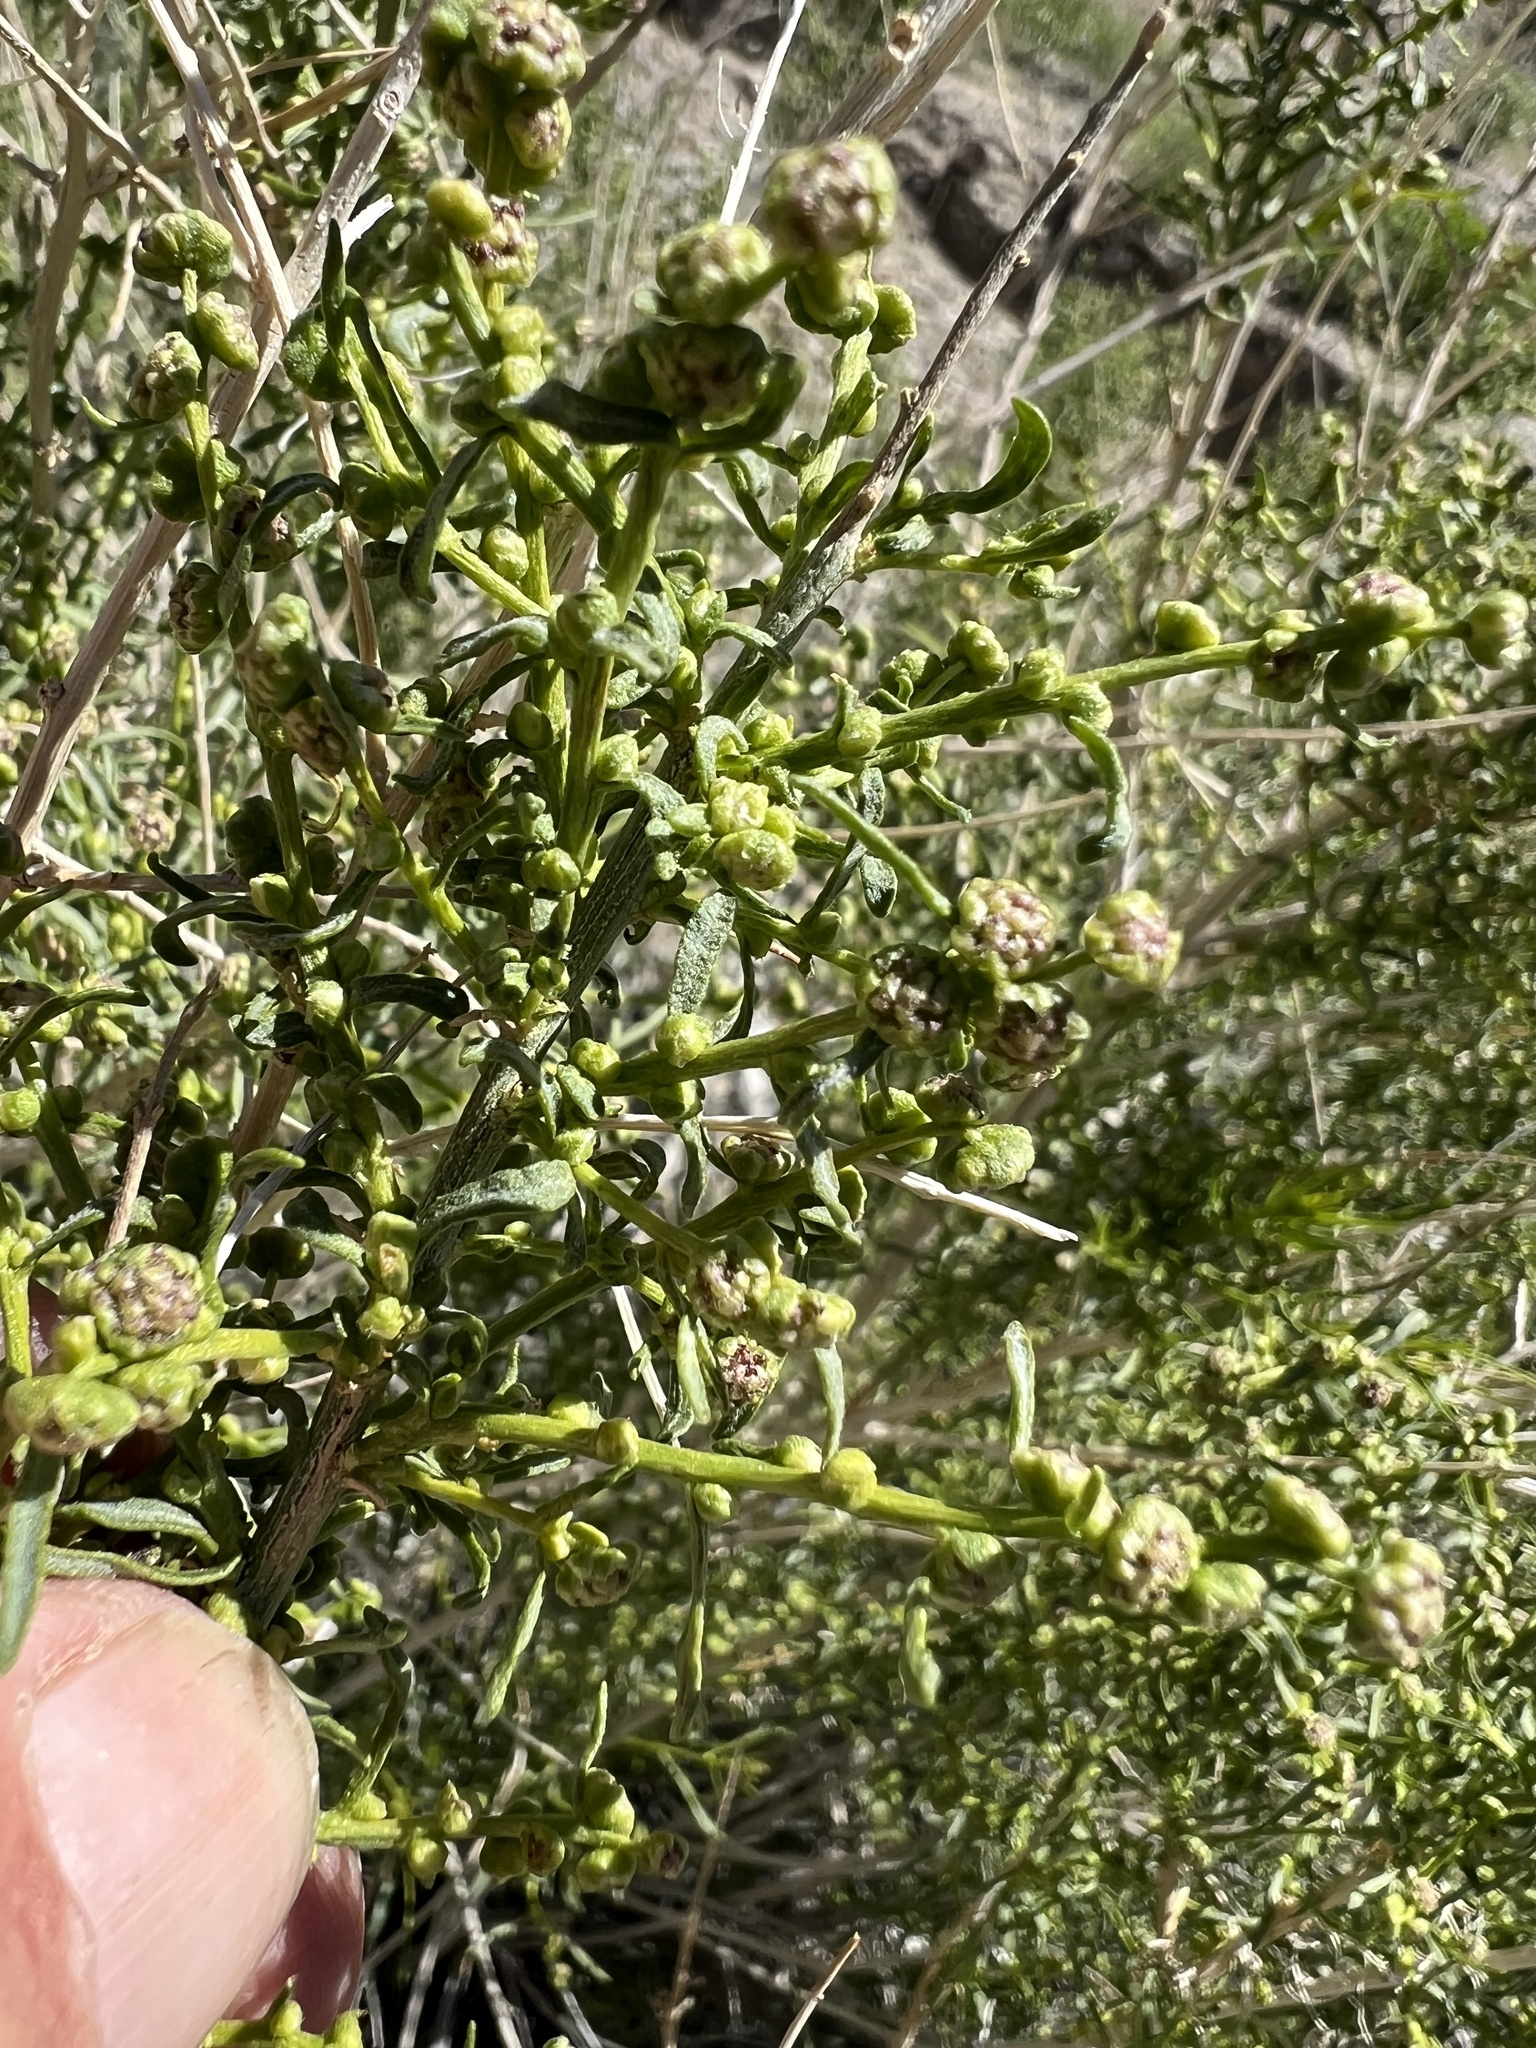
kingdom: Plantae
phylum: Tracheophyta
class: Magnoliopsida
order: Asterales
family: Asteraceae
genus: Ambrosia
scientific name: Ambrosia salsola
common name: Burrobrush
